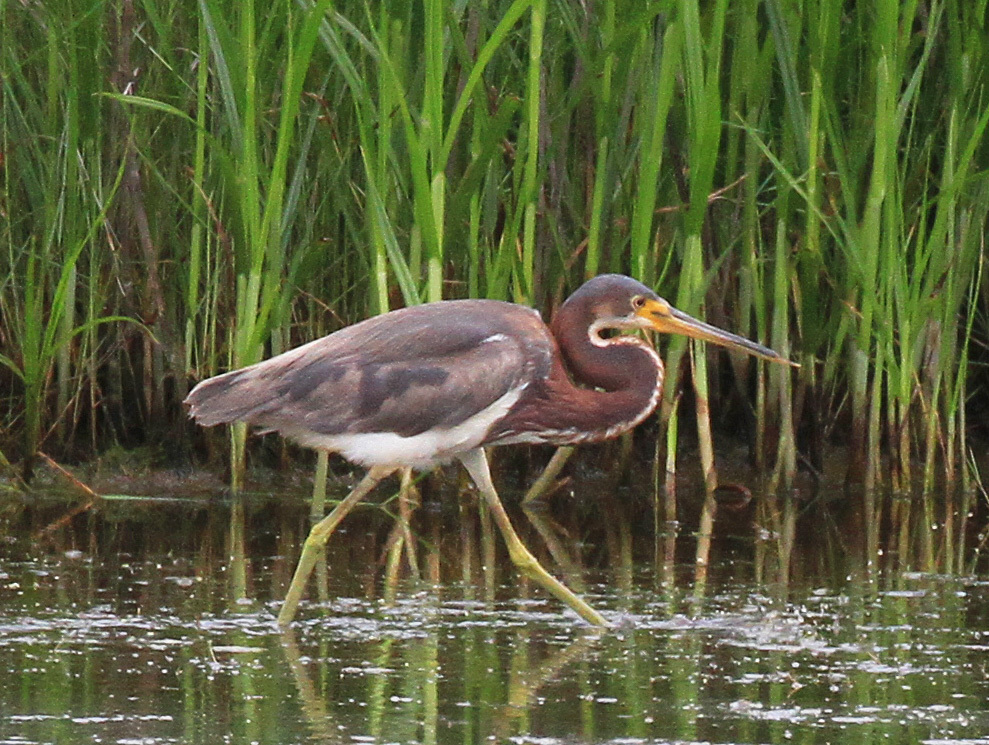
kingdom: Animalia
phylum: Chordata
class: Aves
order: Pelecaniformes
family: Ardeidae
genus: Egretta
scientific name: Egretta tricolor
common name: Tricolored heron
